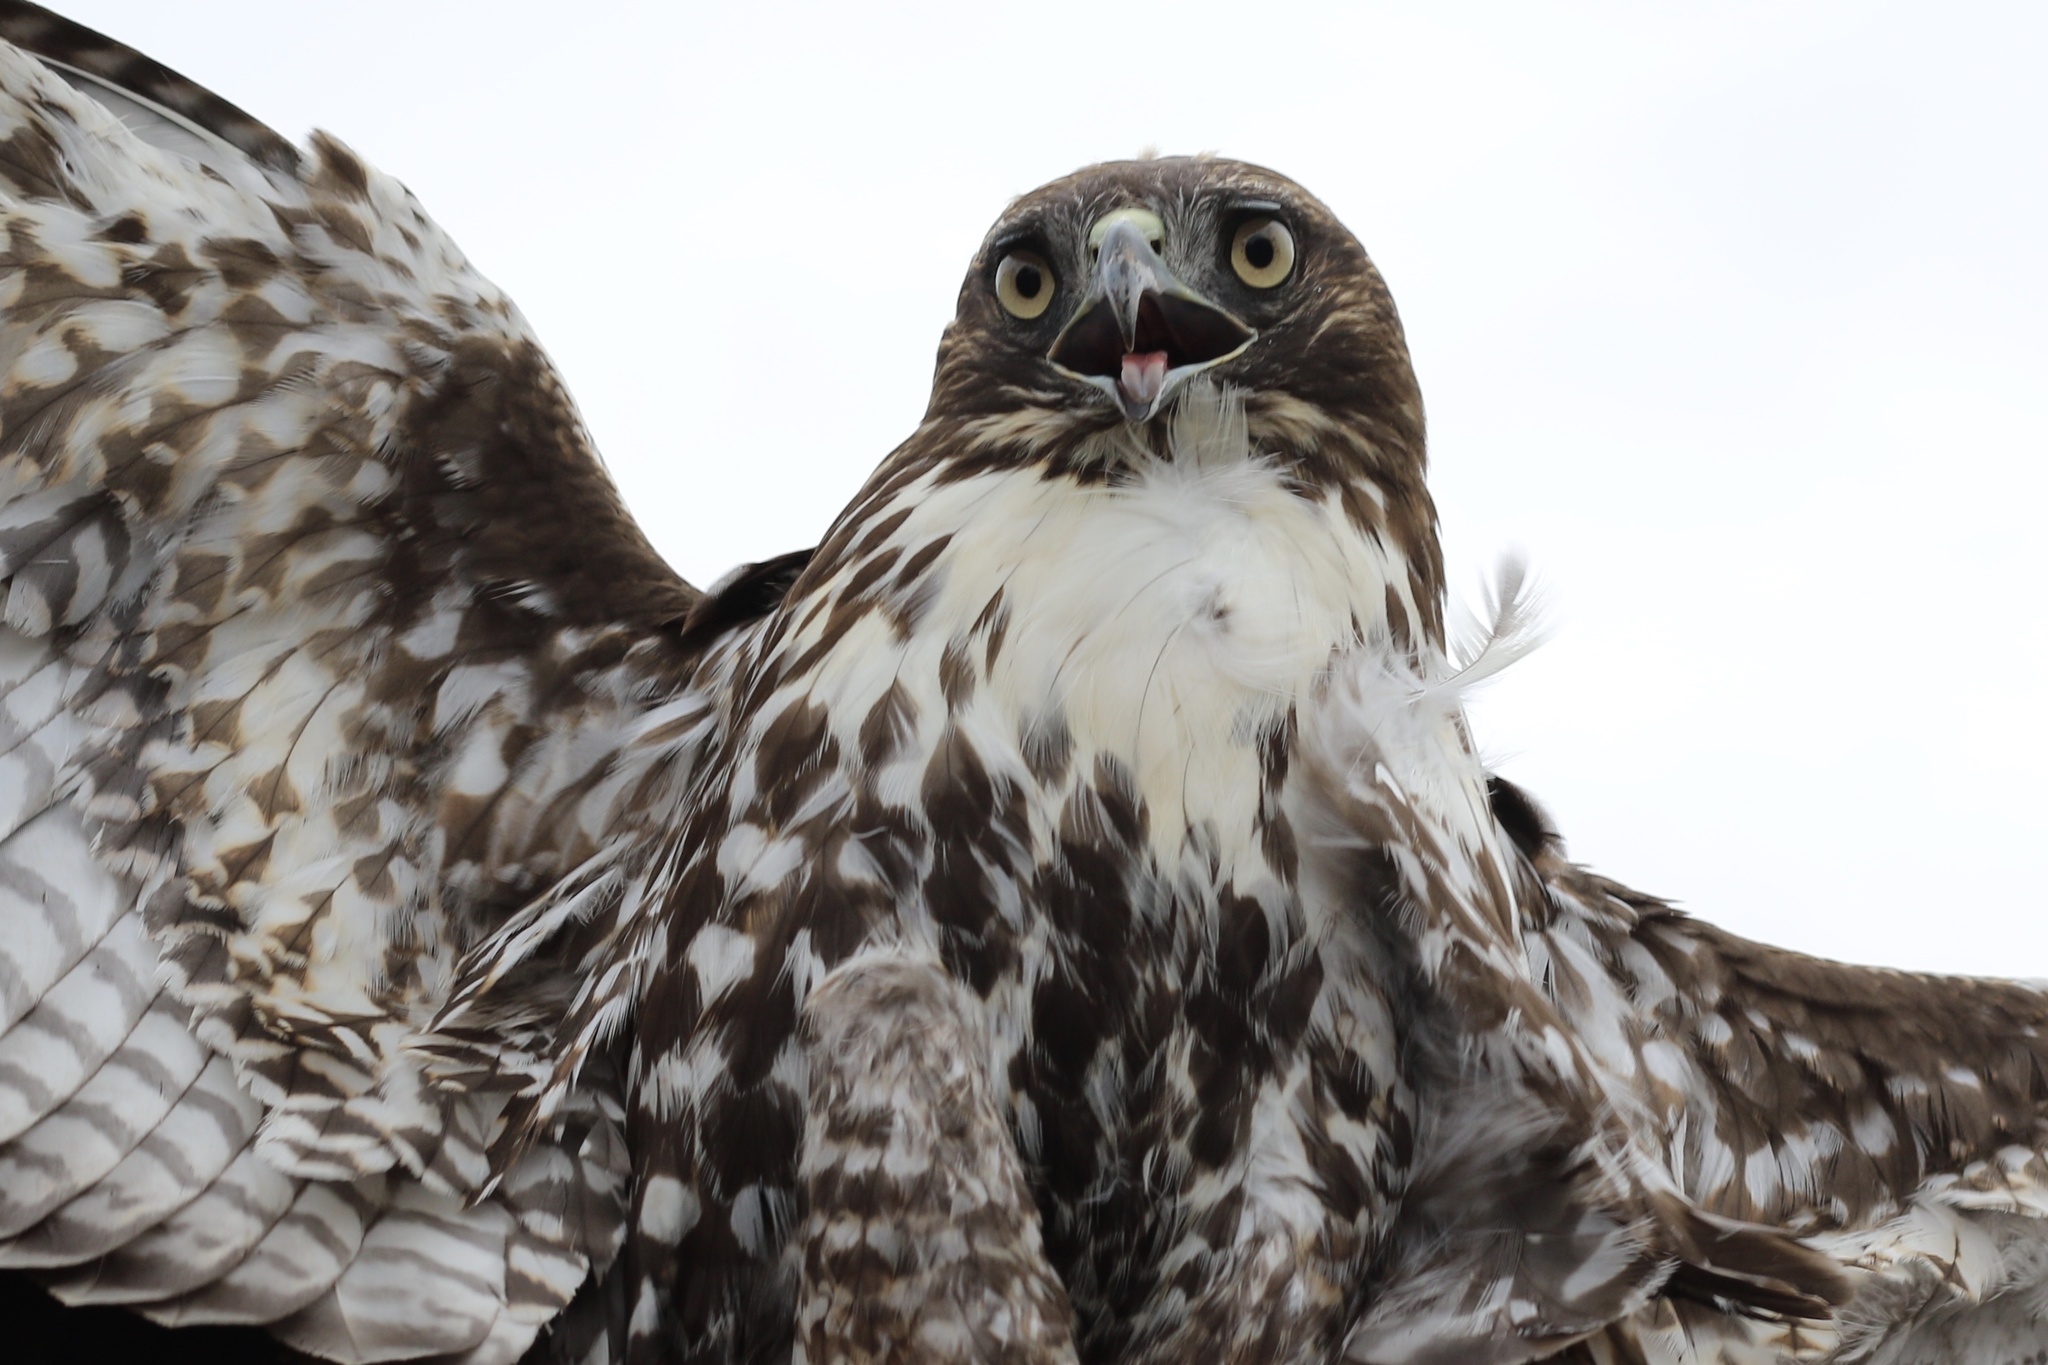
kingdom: Animalia
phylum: Chordata
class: Aves
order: Accipitriformes
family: Accipitridae
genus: Buteo
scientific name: Buteo jamaicensis
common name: Red-tailed hawk
